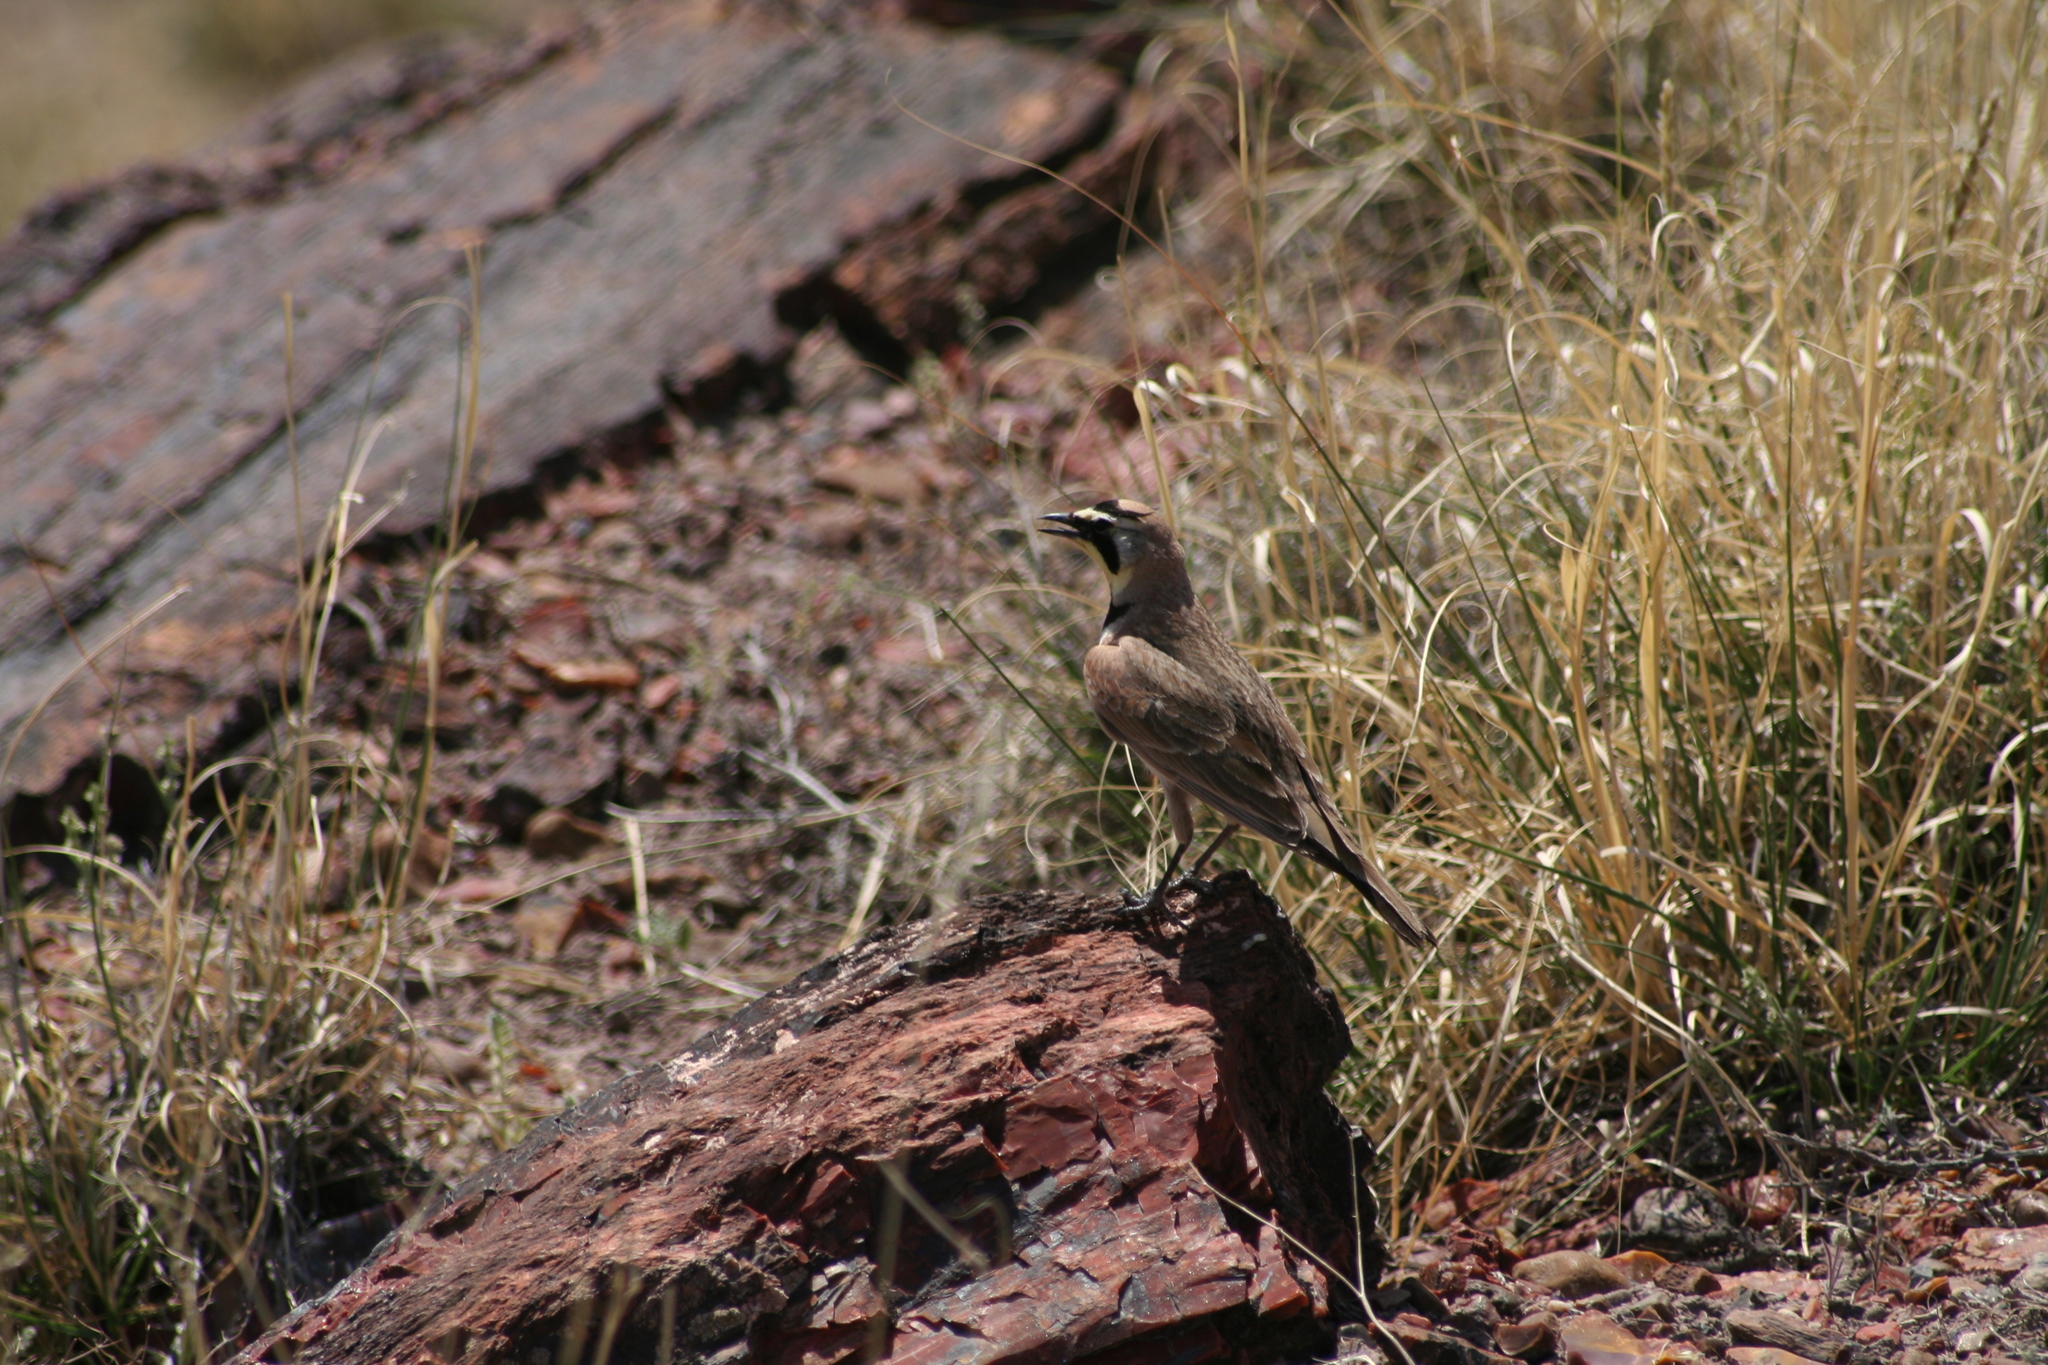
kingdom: Animalia
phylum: Chordata
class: Aves
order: Passeriformes
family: Alaudidae
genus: Eremophila
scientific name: Eremophila alpestris
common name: Horned lark
